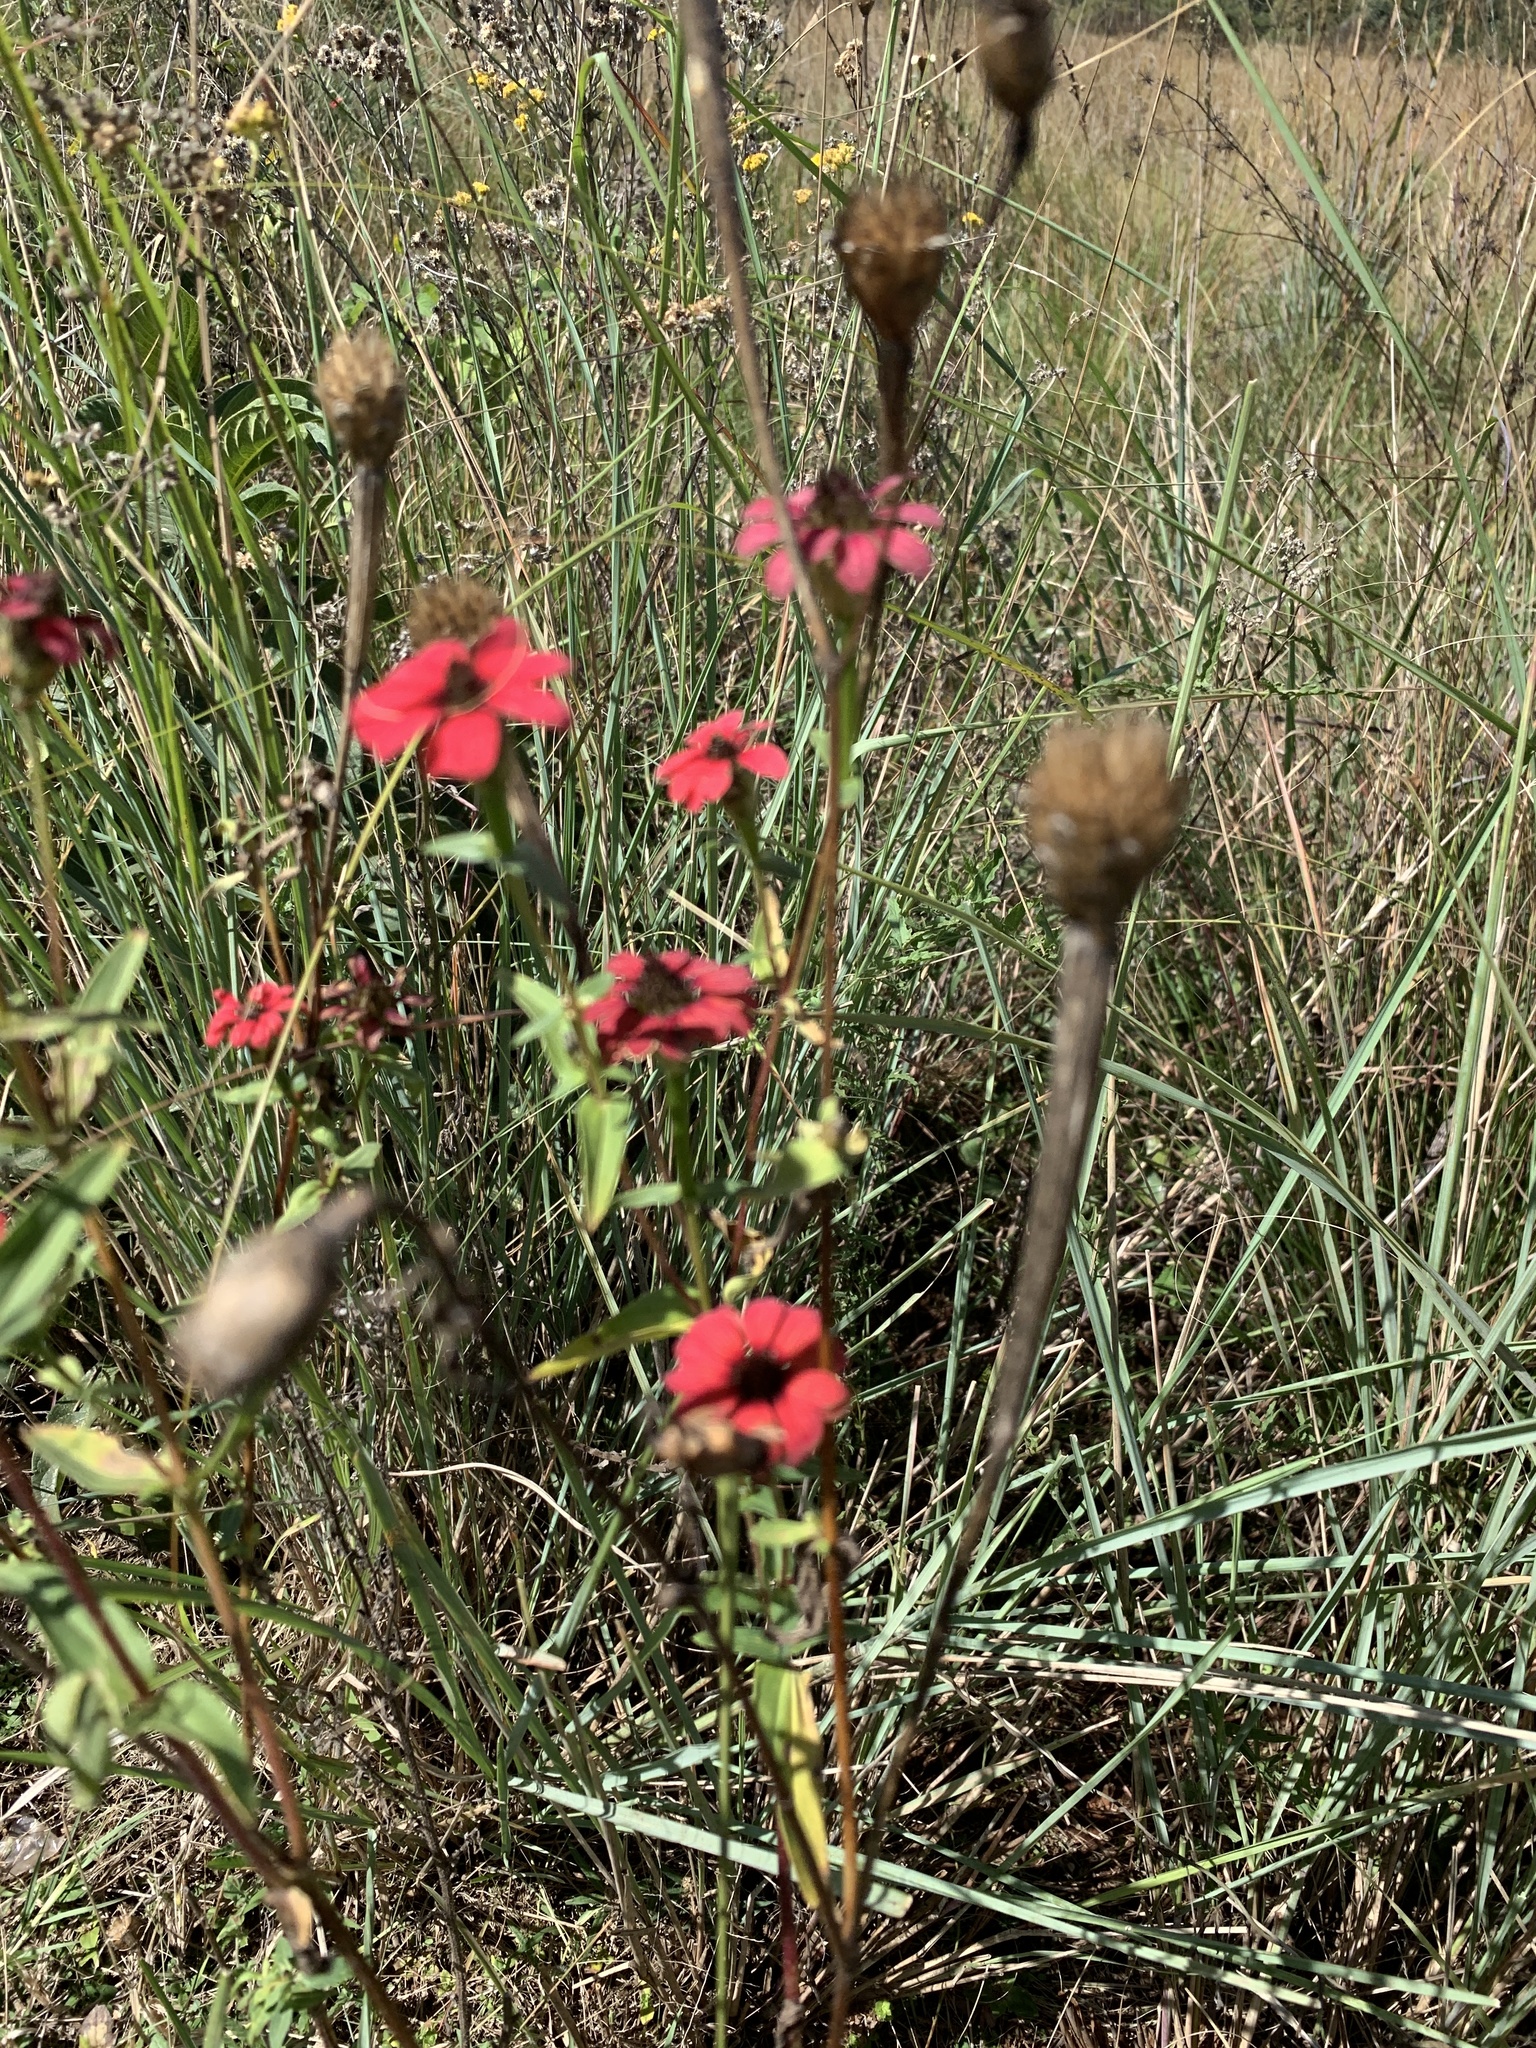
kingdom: Plantae
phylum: Tracheophyta
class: Magnoliopsida
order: Asterales
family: Asteraceae
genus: Zinnia
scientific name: Zinnia peruviana
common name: Peruvian zinnia
